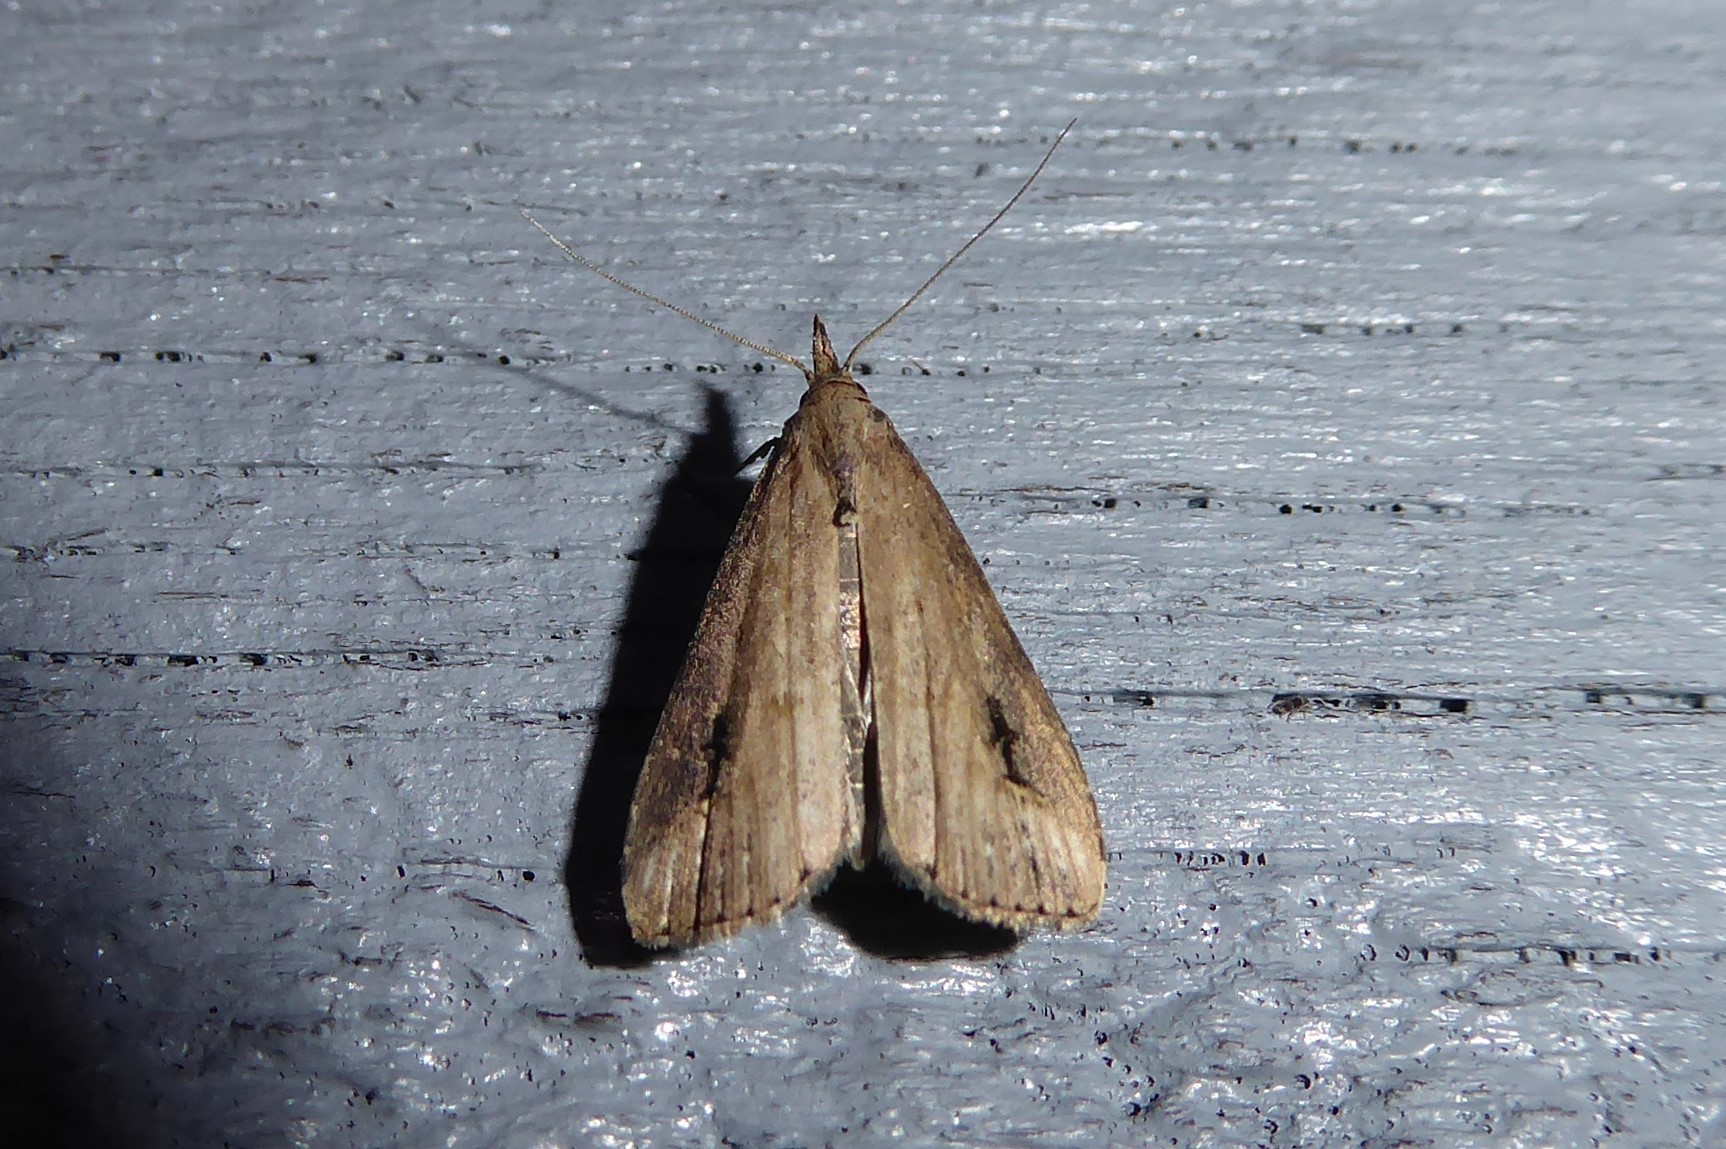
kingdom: Animalia
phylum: Arthropoda
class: Insecta
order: Lepidoptera
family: Erebidae
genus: Schrankia
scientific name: Schrankia costaestrigalis
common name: Pinion-streaked snout
